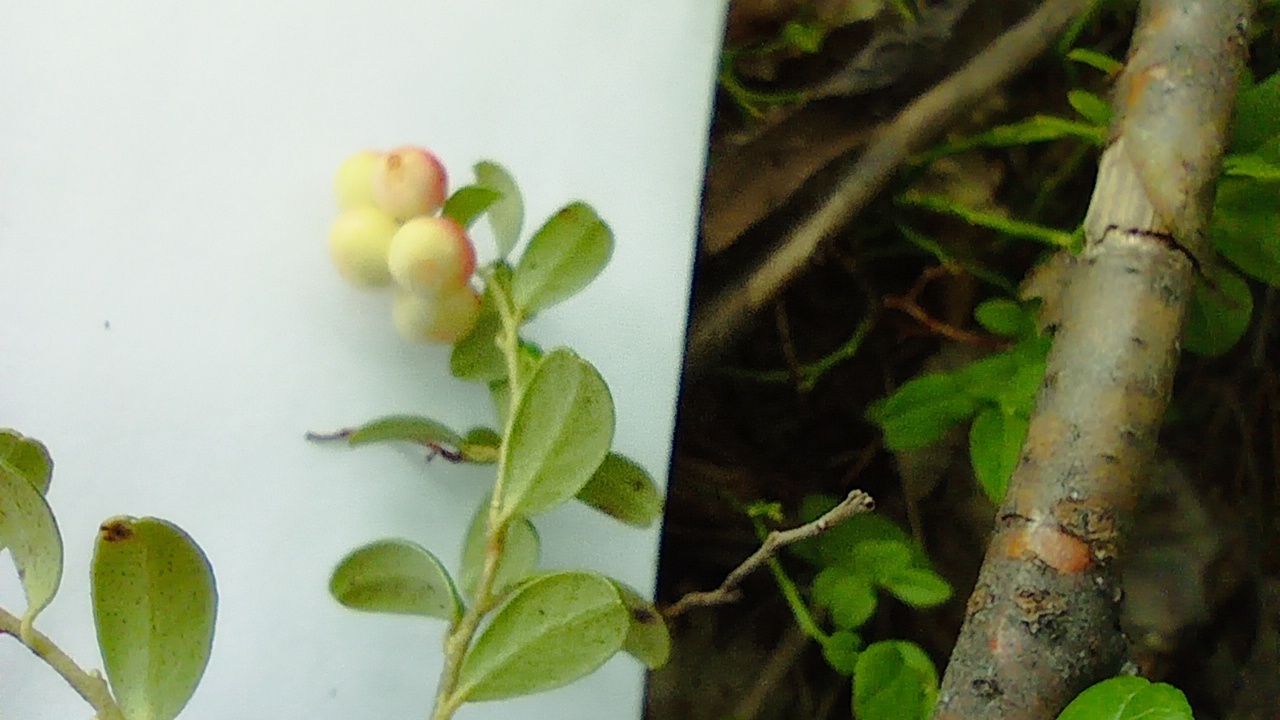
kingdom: Plantae
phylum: Tracheophyta
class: Magnoliopsida
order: Ericales
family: Ericaceae
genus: Vaccinium
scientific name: Vaccinium vitis-idaea
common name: Cowberry
